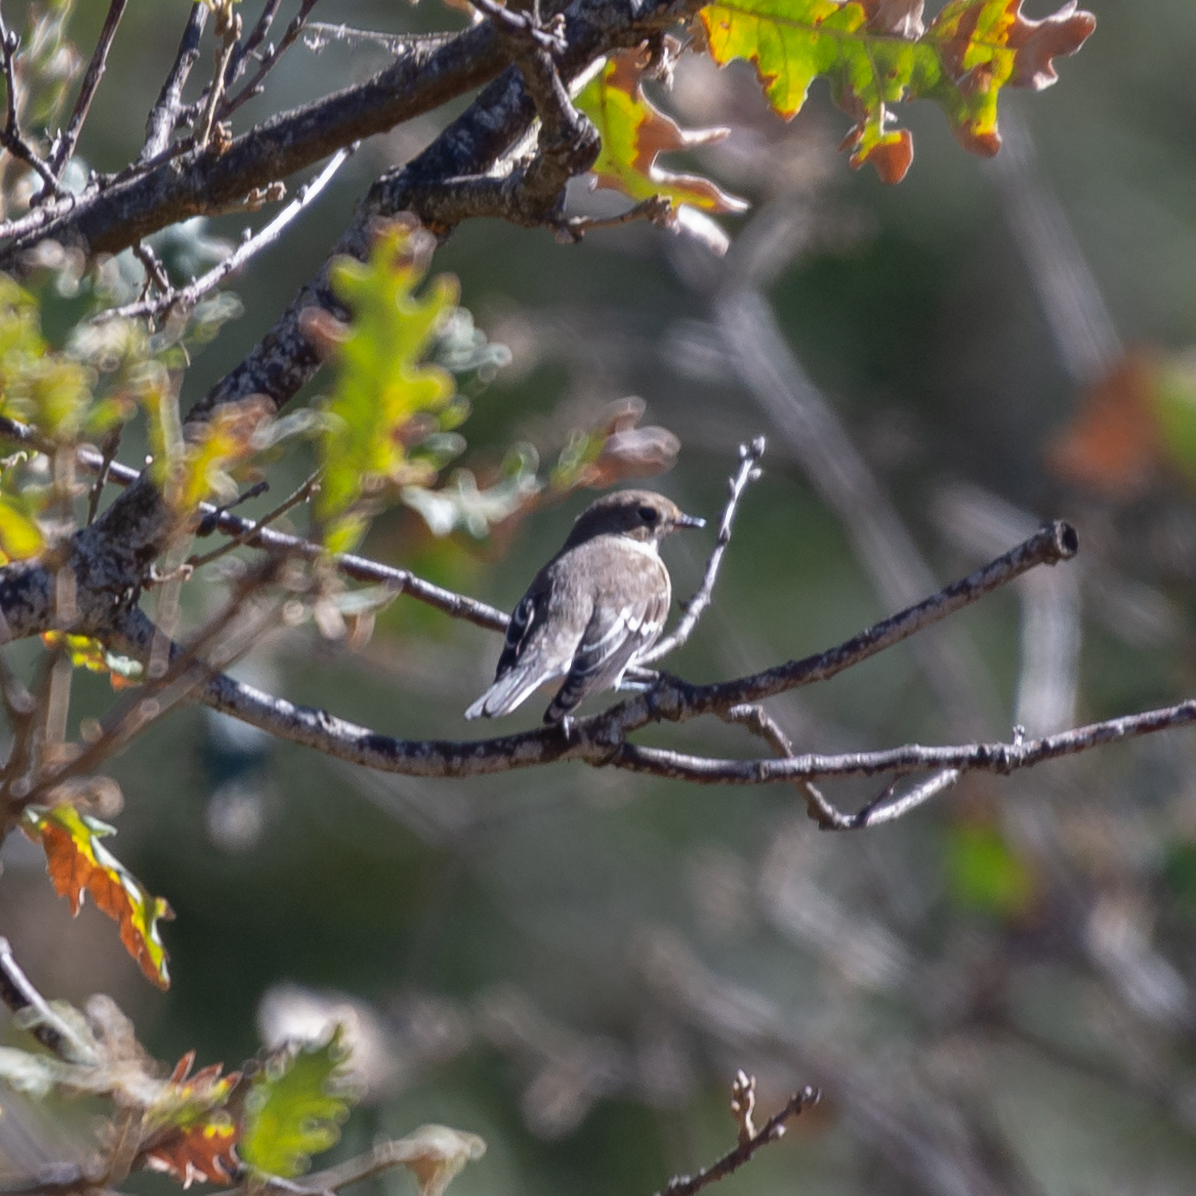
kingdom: Animalia
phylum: Chordata
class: Aves
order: Passeriformes
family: Muscicapidae
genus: Ficedula
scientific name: Ficedula hypoleuca
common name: European pied flycatcher
